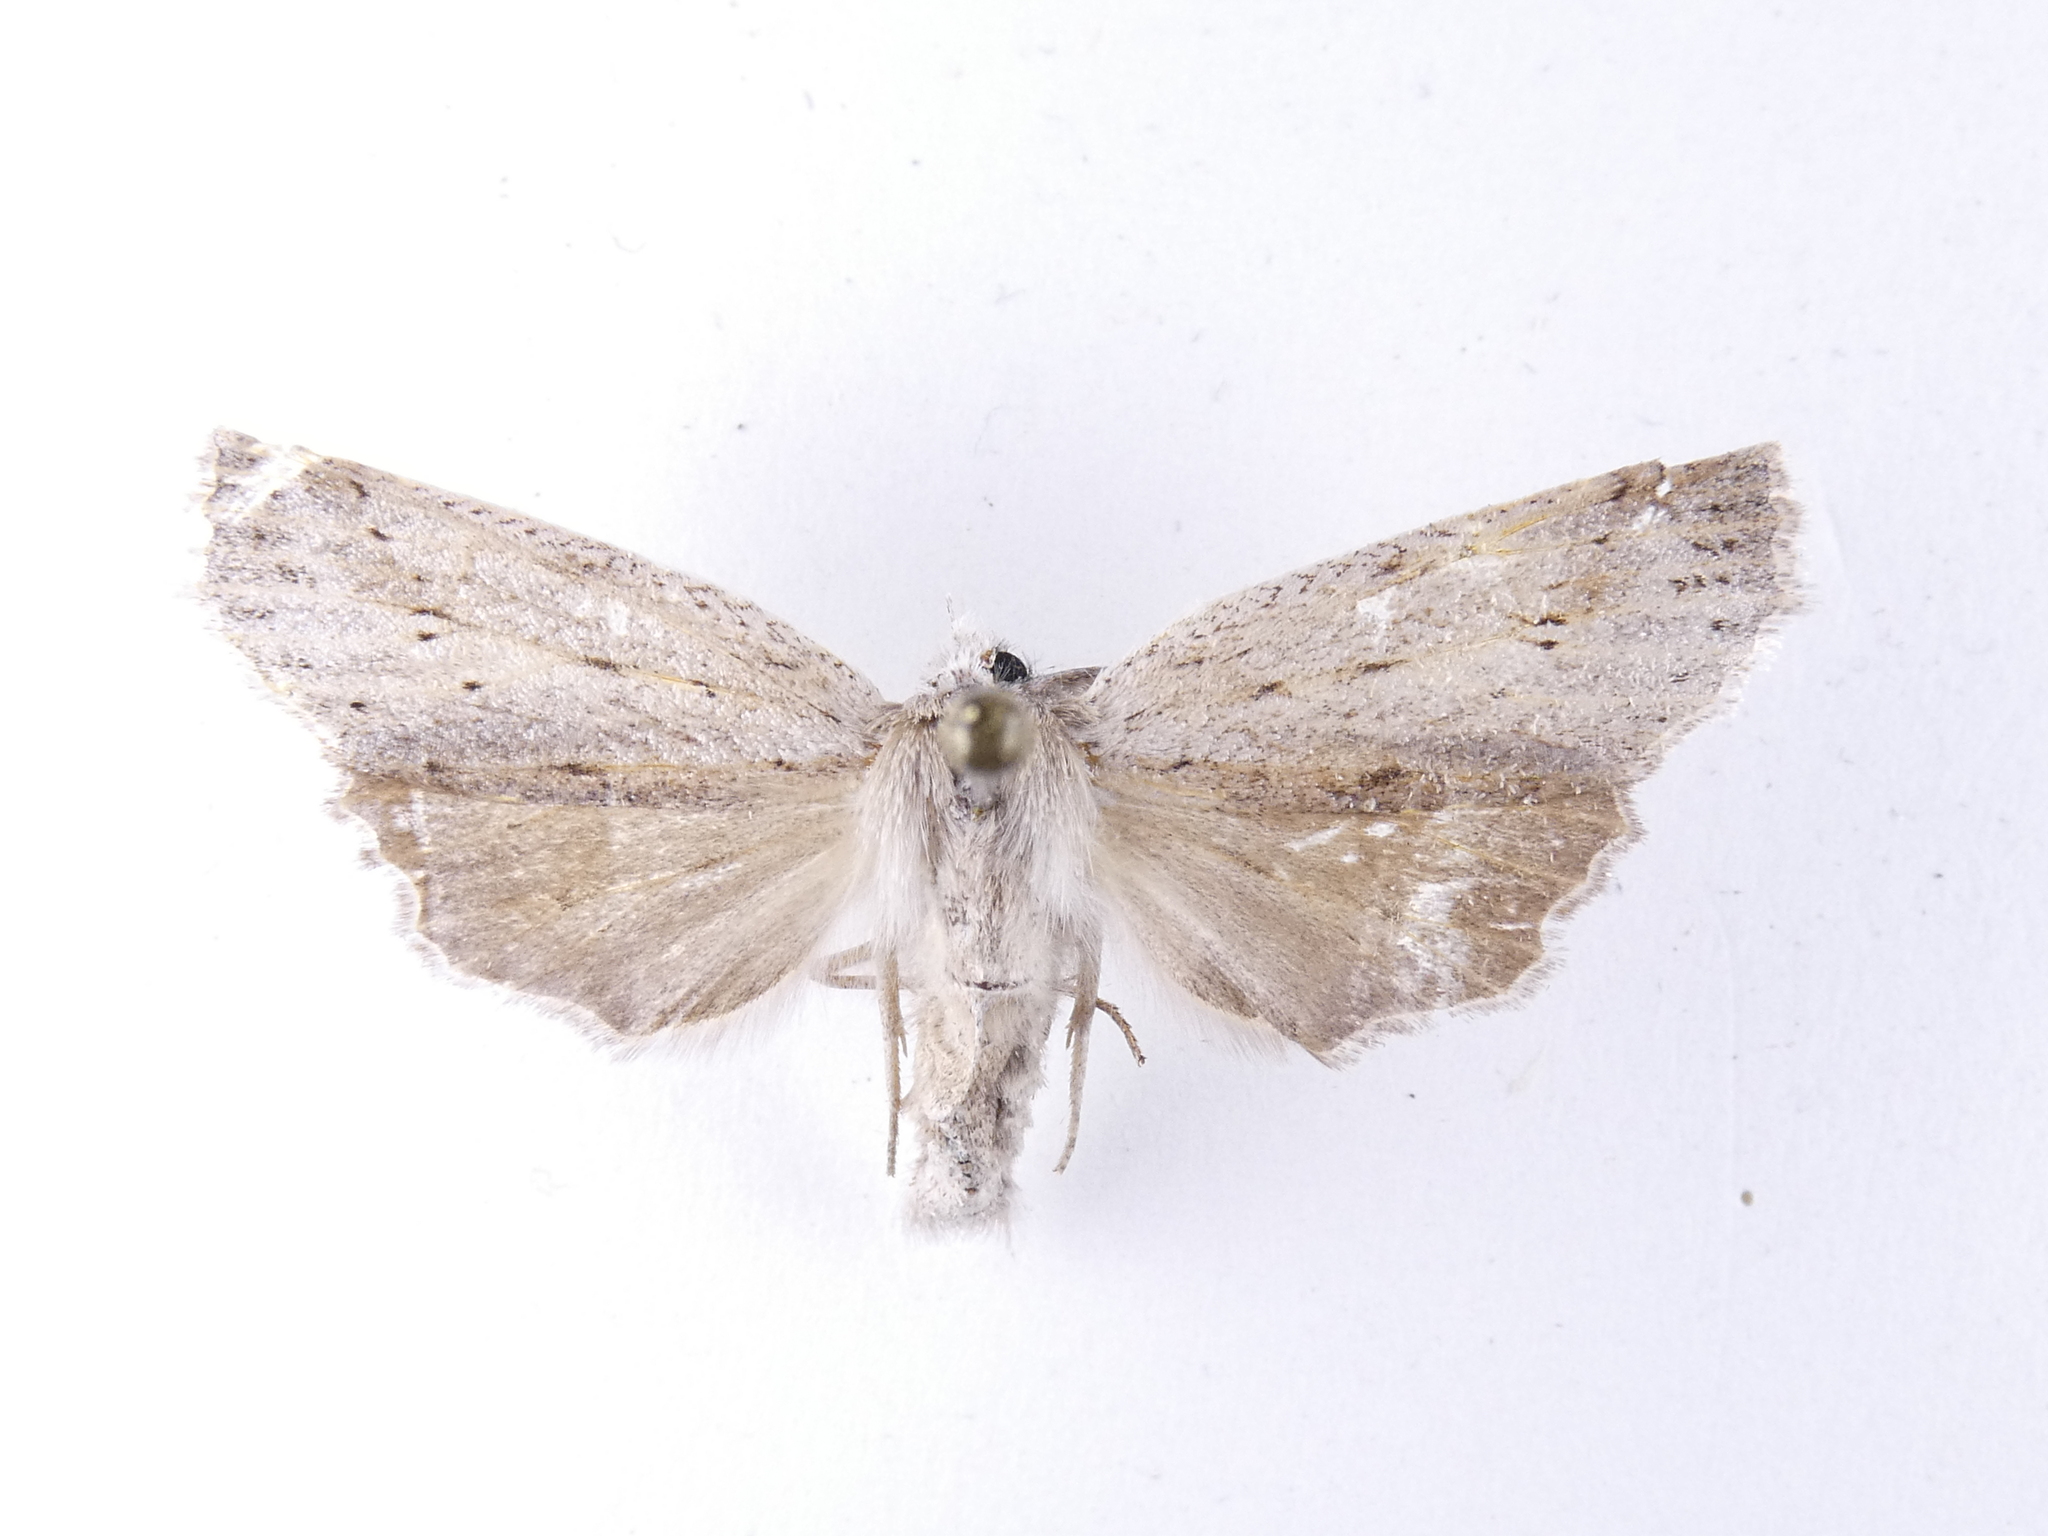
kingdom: Animalia
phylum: Arthropoda
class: Insecta
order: Lepidoptera
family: Geometridae
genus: Declana
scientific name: Declana leptomera
